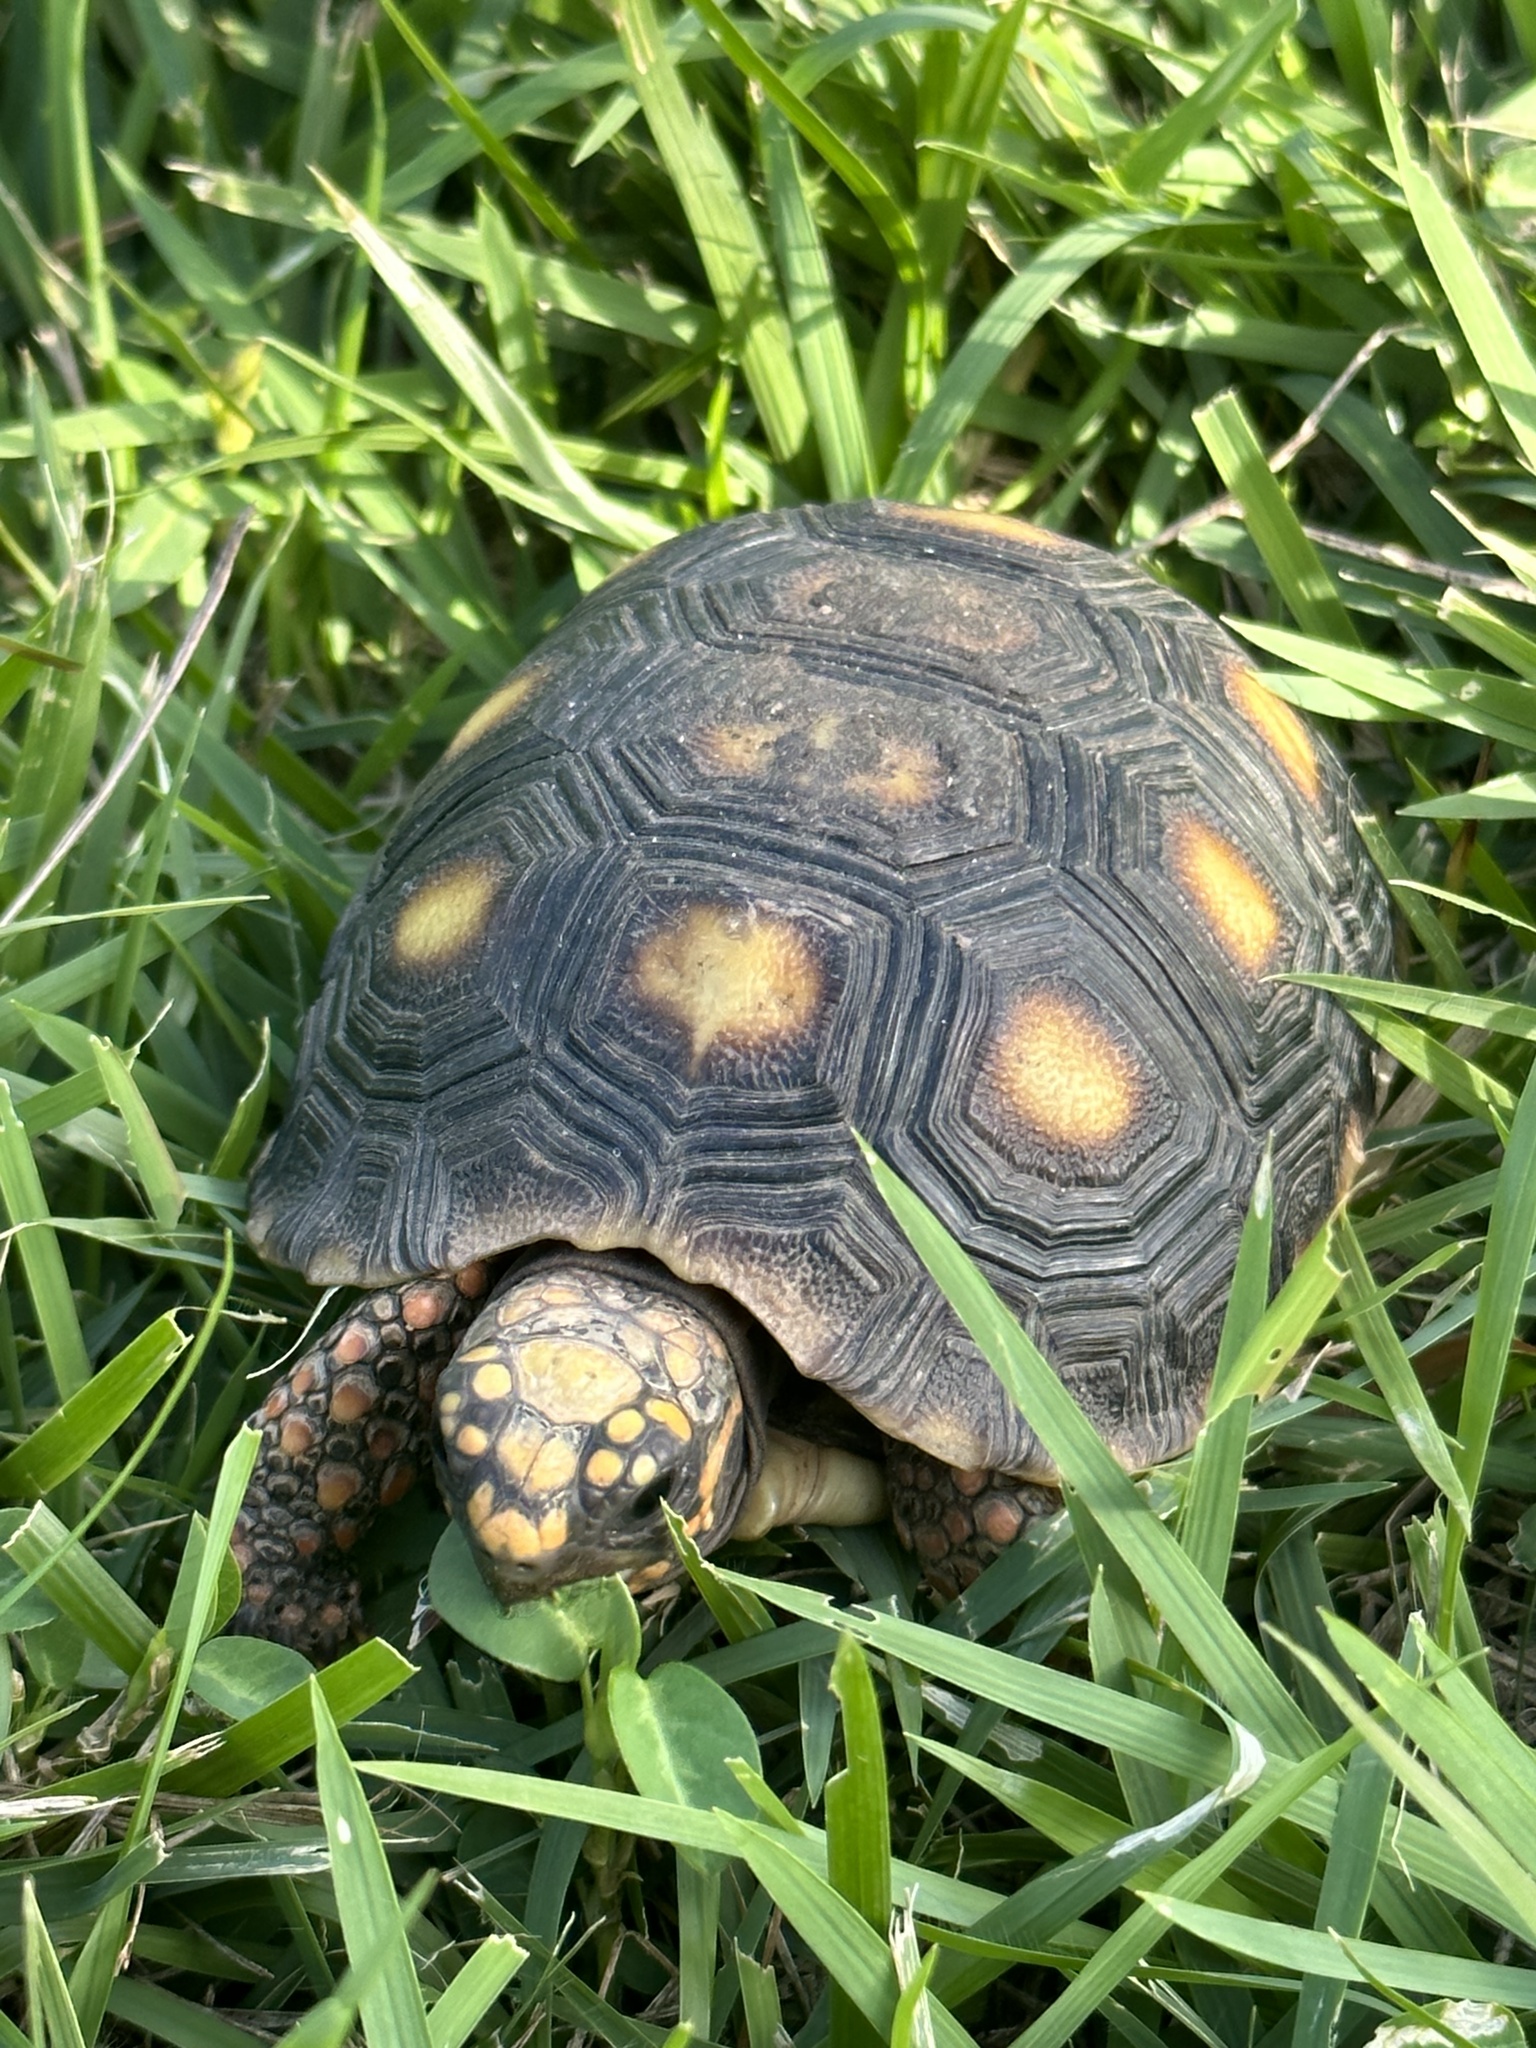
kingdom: Animalia
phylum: Chordata
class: Testudines
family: Testudinidae
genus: Chelonoidis
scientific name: Chelonoidis carbonarius
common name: Red-footed tortoise
